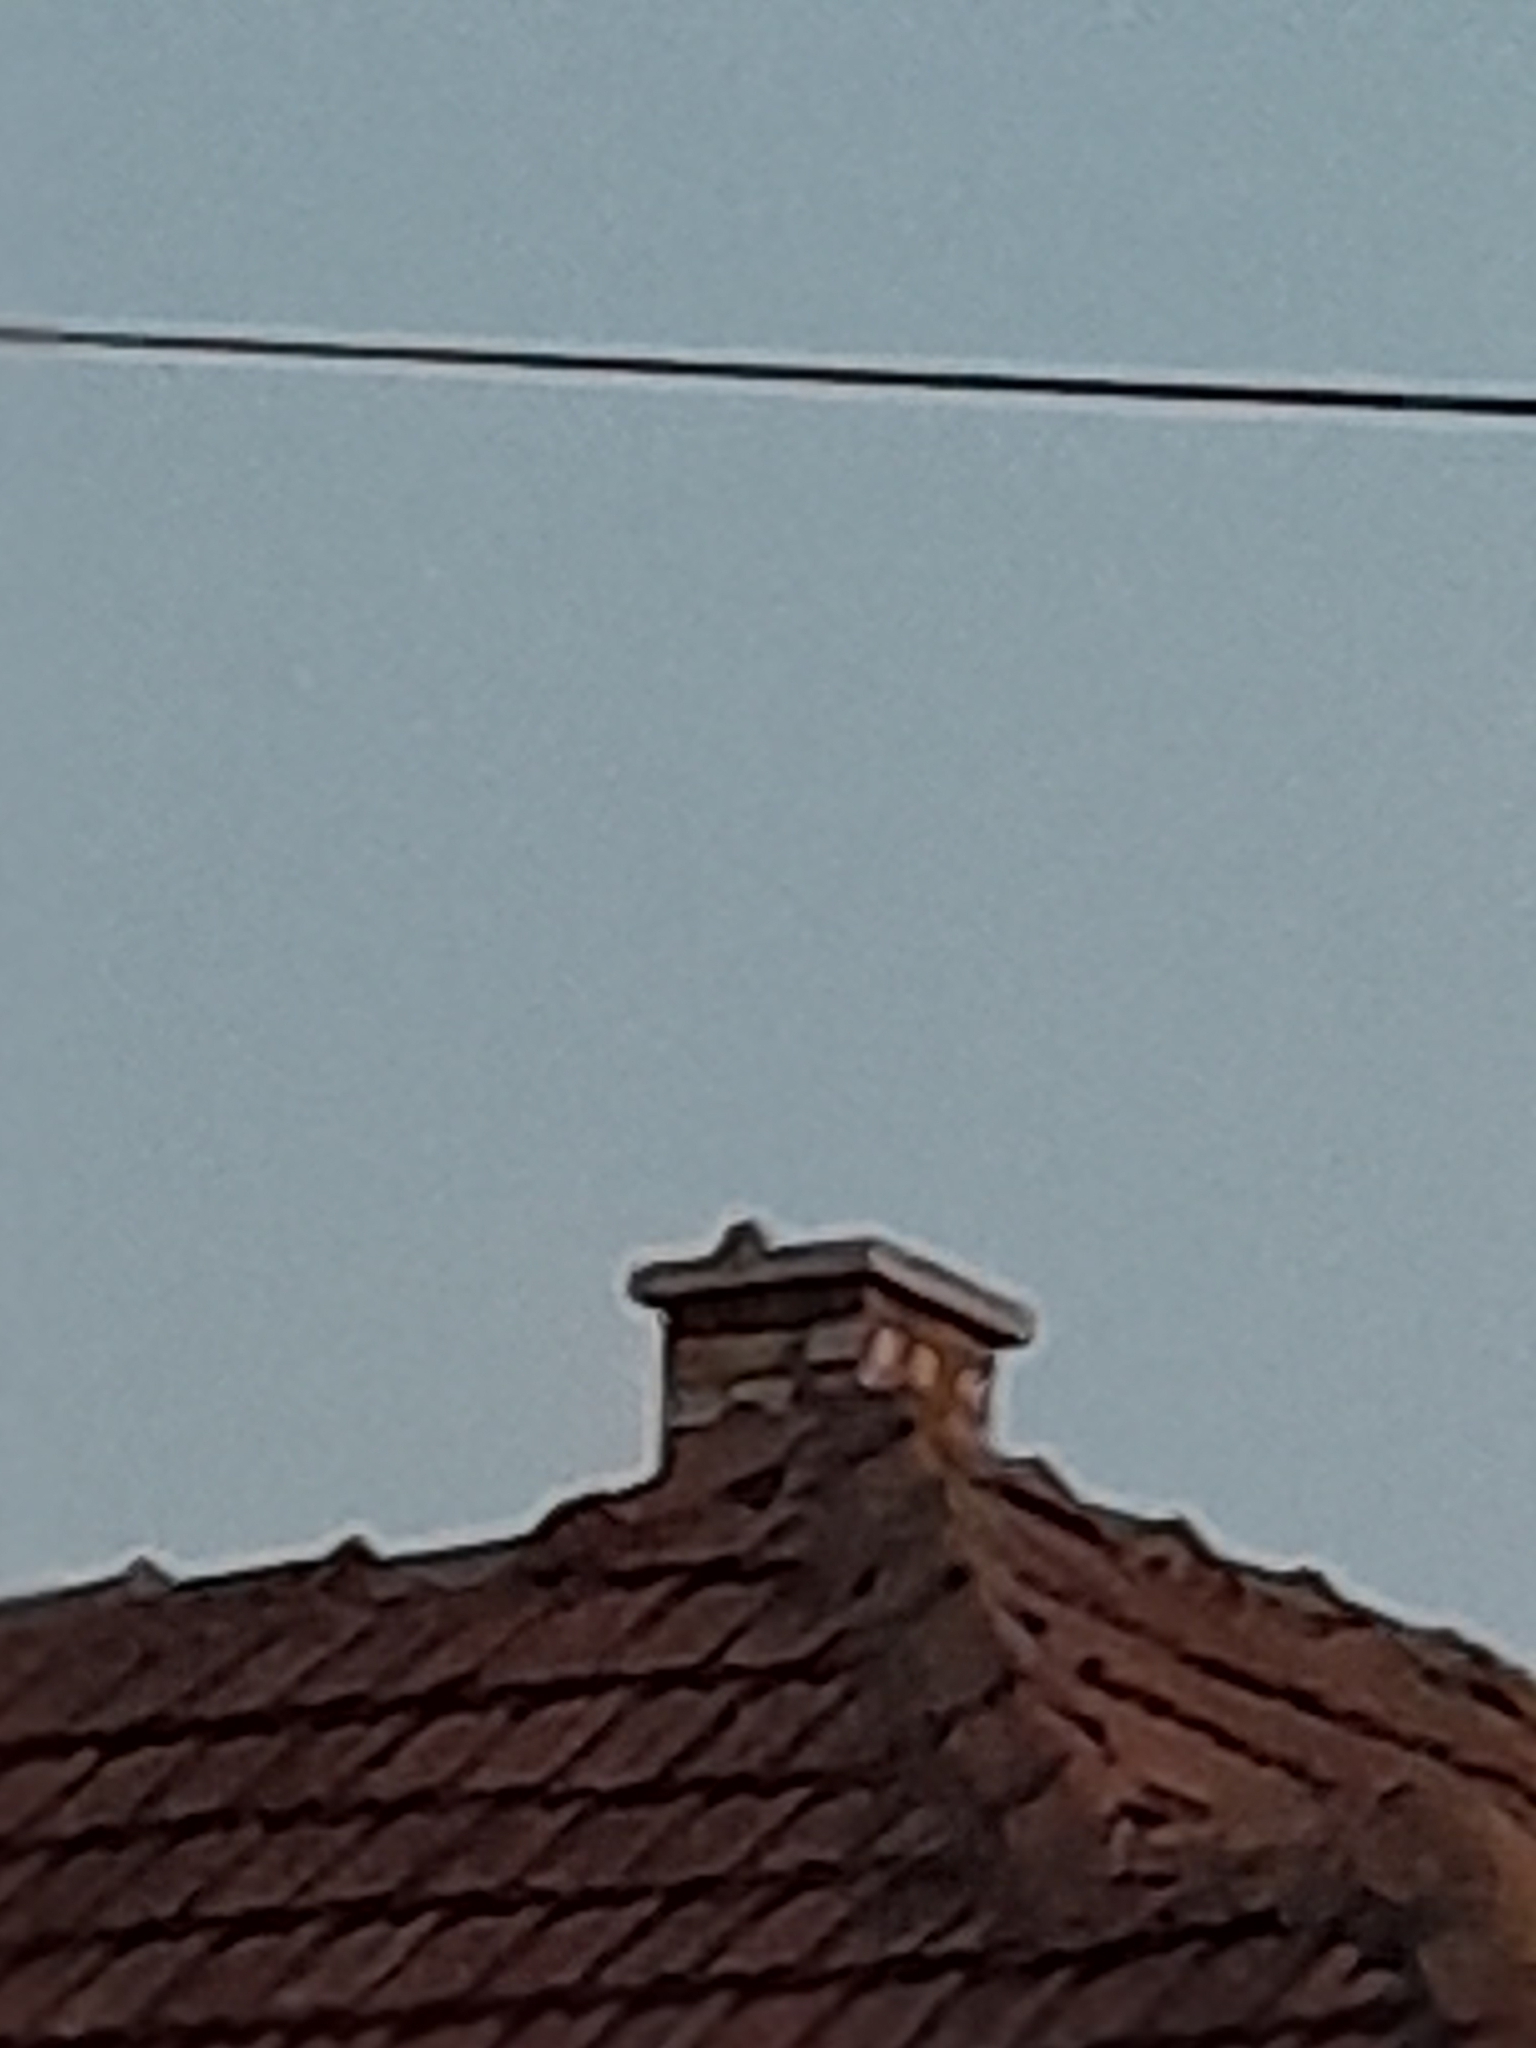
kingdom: Animalia
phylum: Chordata
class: Aves
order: Strigiformes
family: Strigidae
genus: Athene
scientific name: Athene noctua
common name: Little owl
